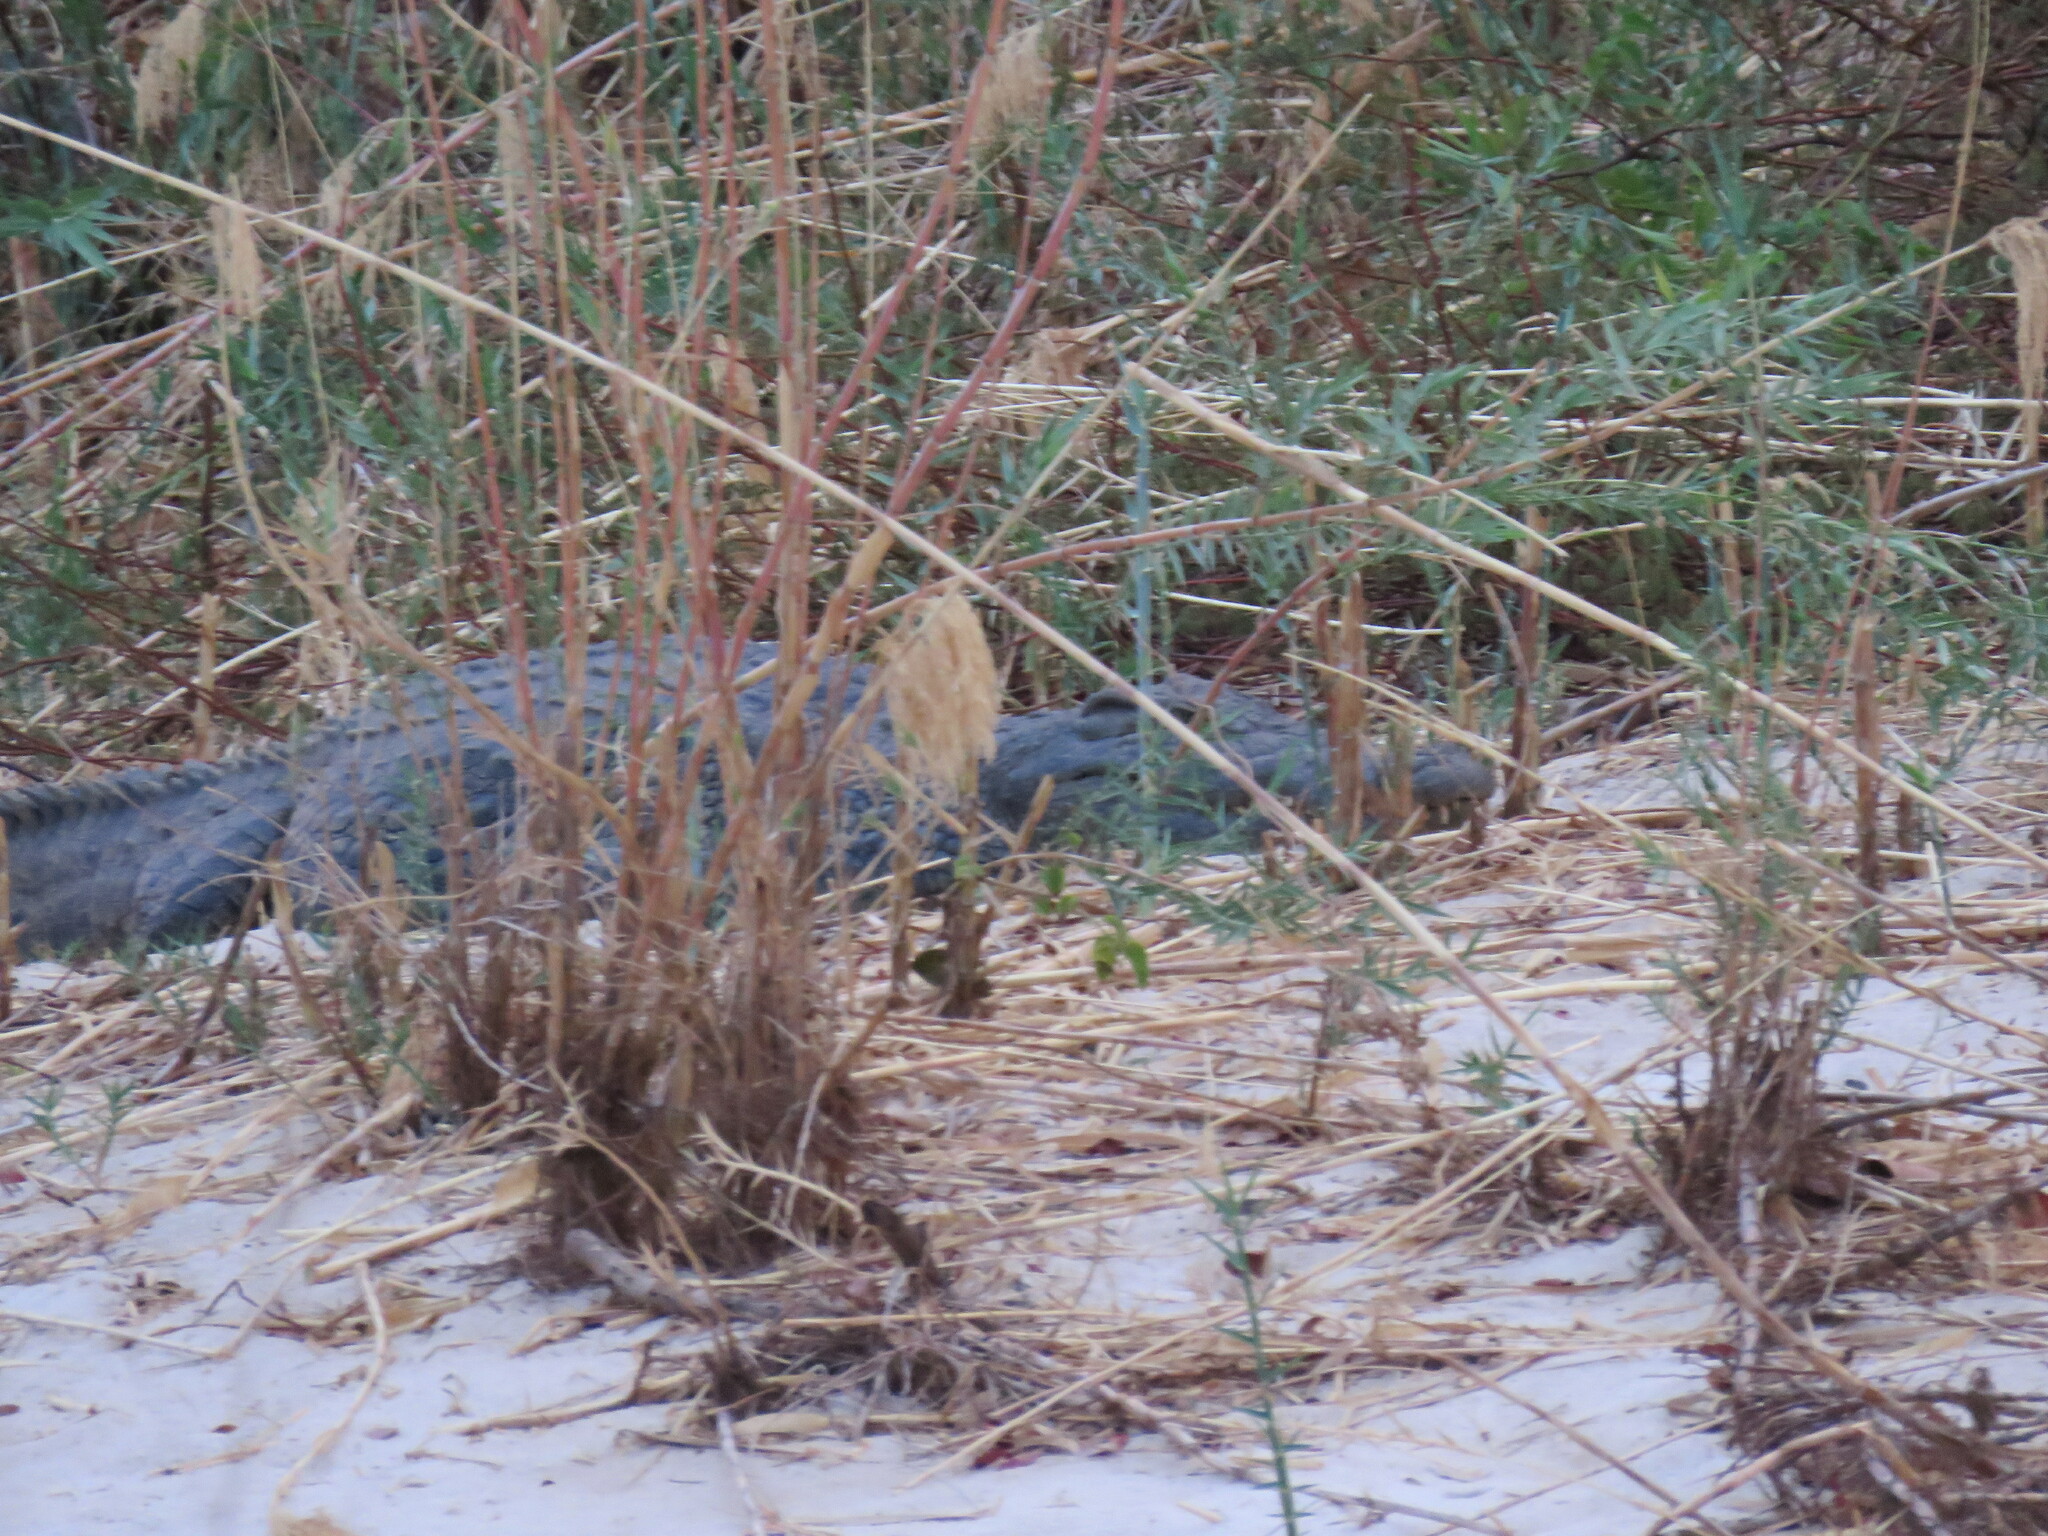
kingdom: Animalia
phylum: Chordata
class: Crocodylia
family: Crocodylidae
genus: Crocodylus
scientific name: Crocodylus niloticus
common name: Nile crocodile
